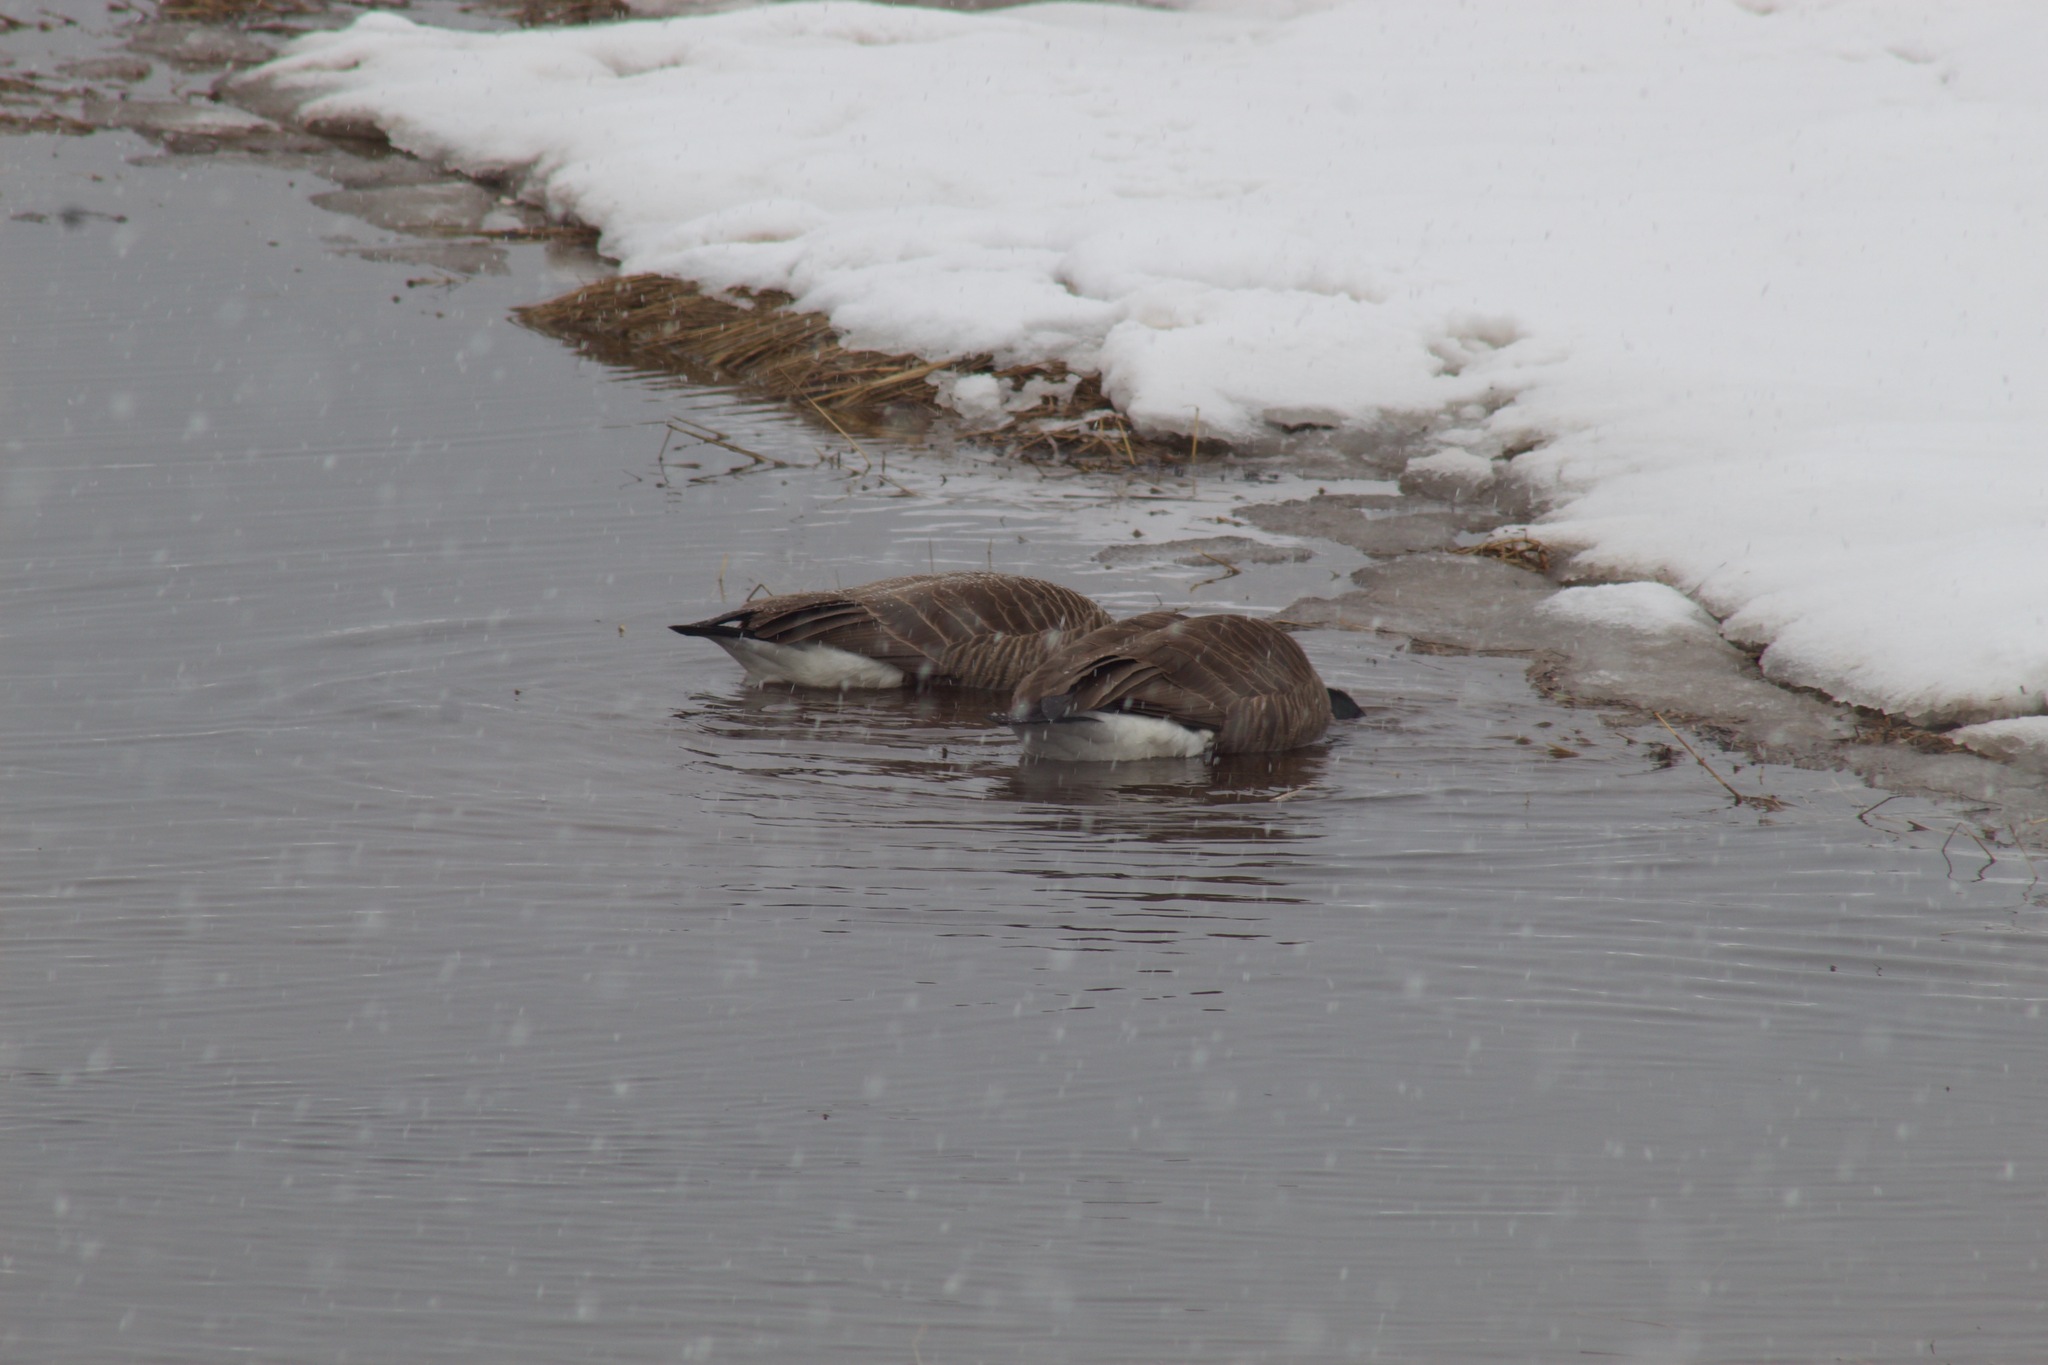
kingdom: Animalia
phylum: Chordata
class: Aves
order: Anseriformes
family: Anatidae
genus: Branta
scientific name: Branta canadensis
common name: Canada goose
